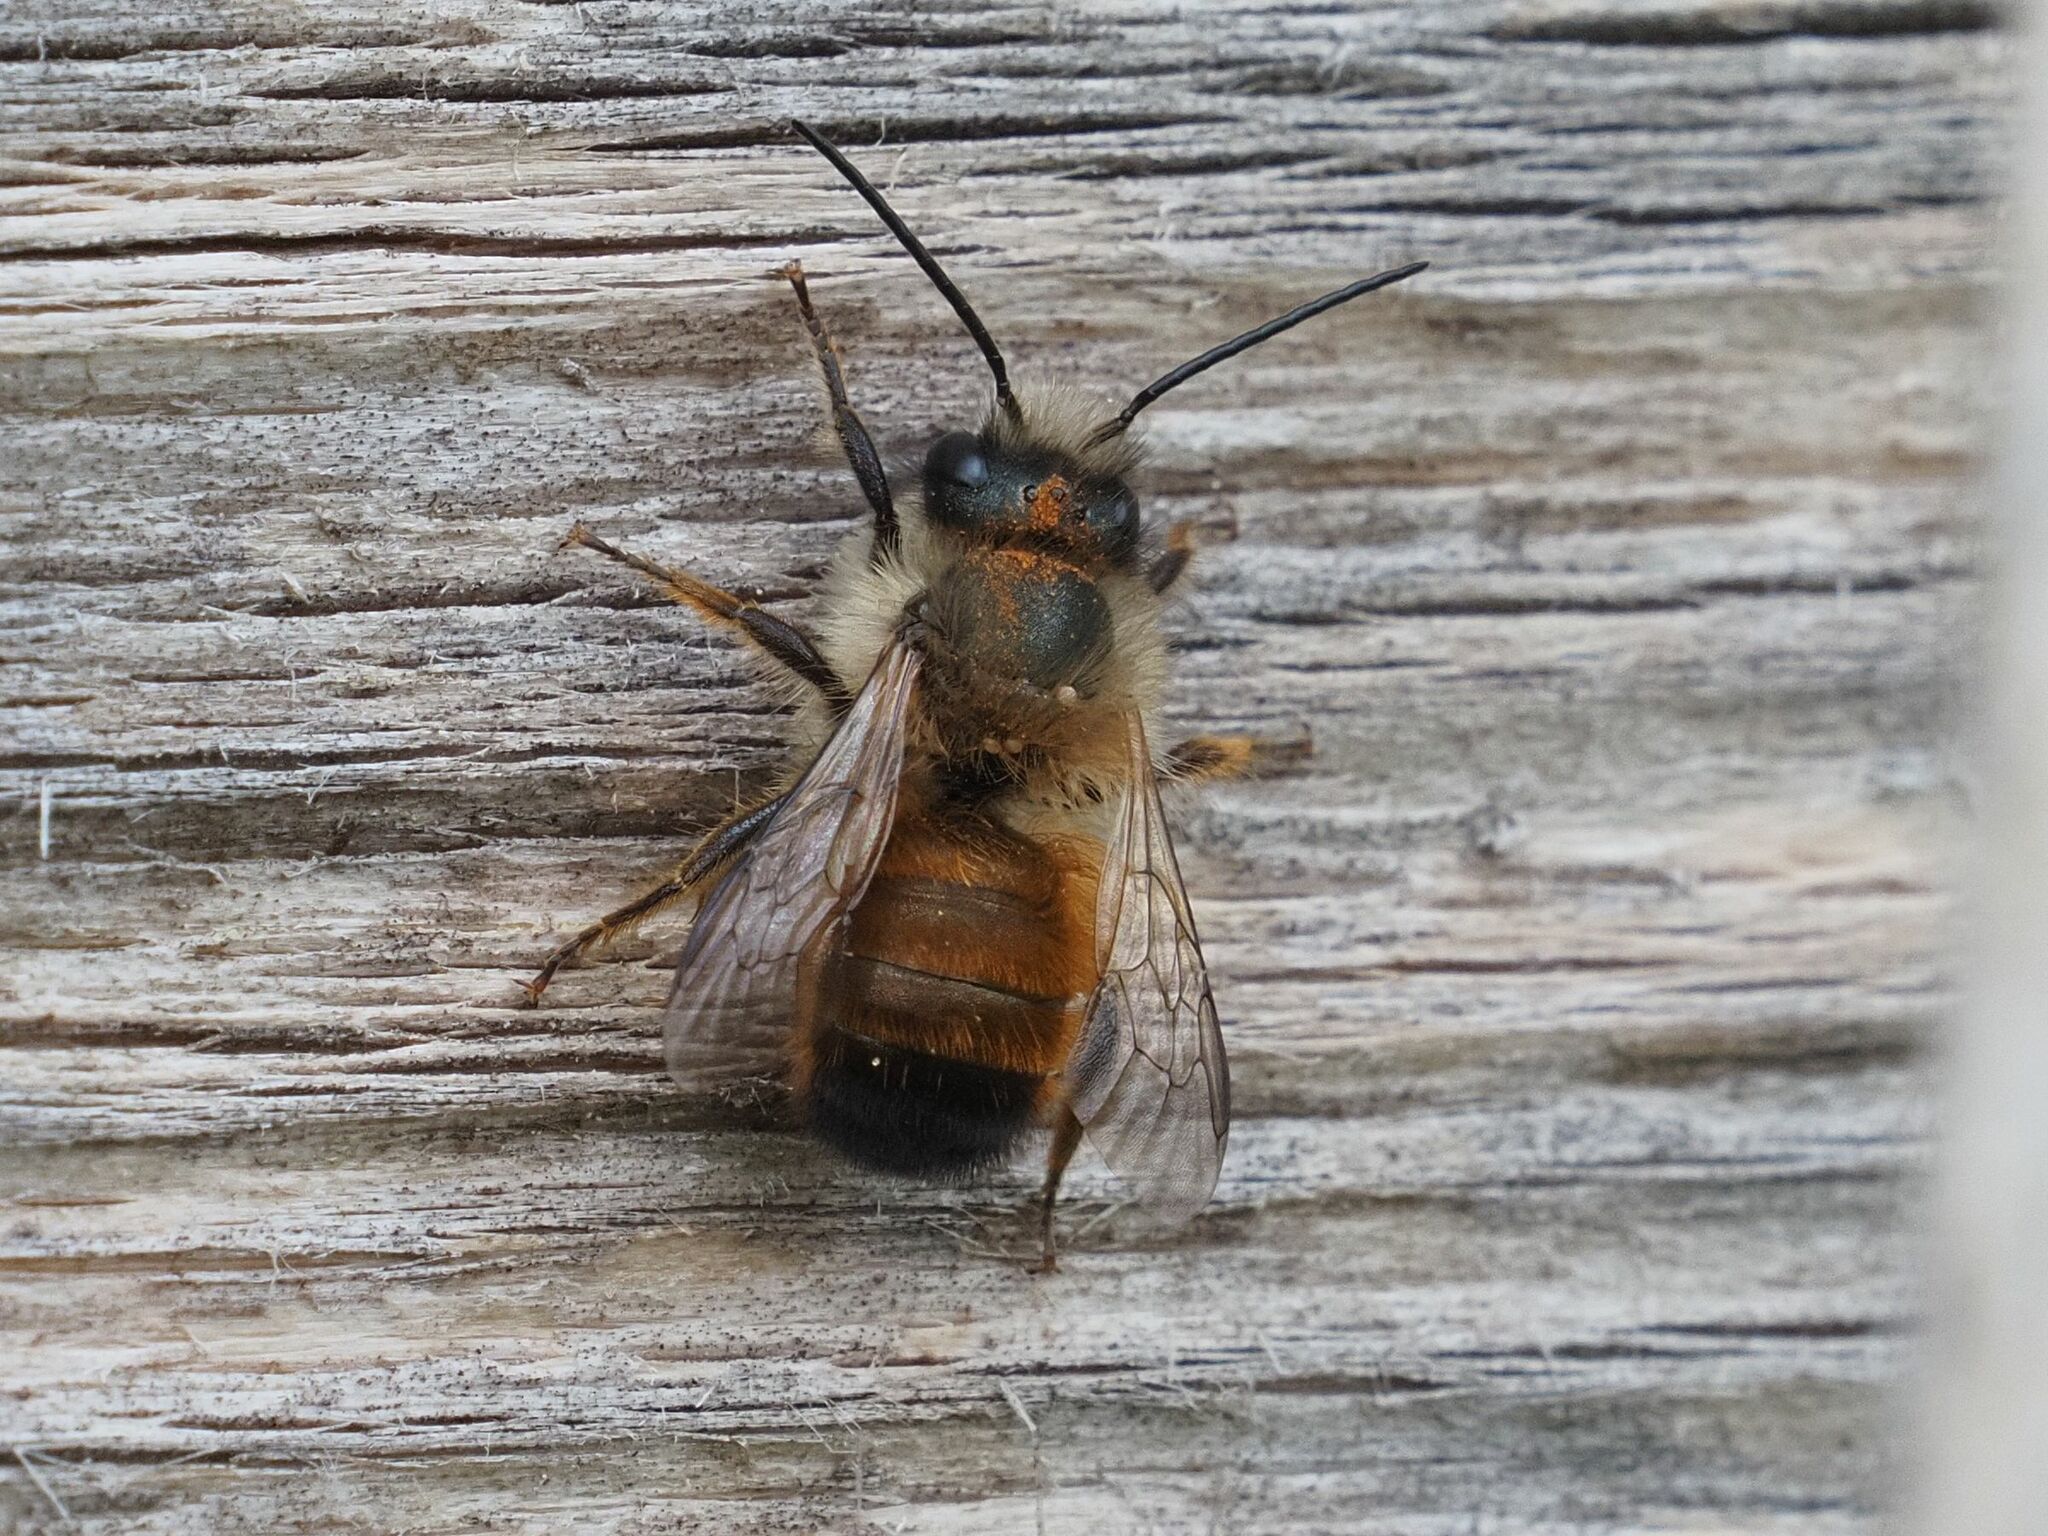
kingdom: Animalia
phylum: Arthropoda
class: Insecta
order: Hymenoptera
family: Megachilidae
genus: Osmia
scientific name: Osmia bicornis
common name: Red mason bee
